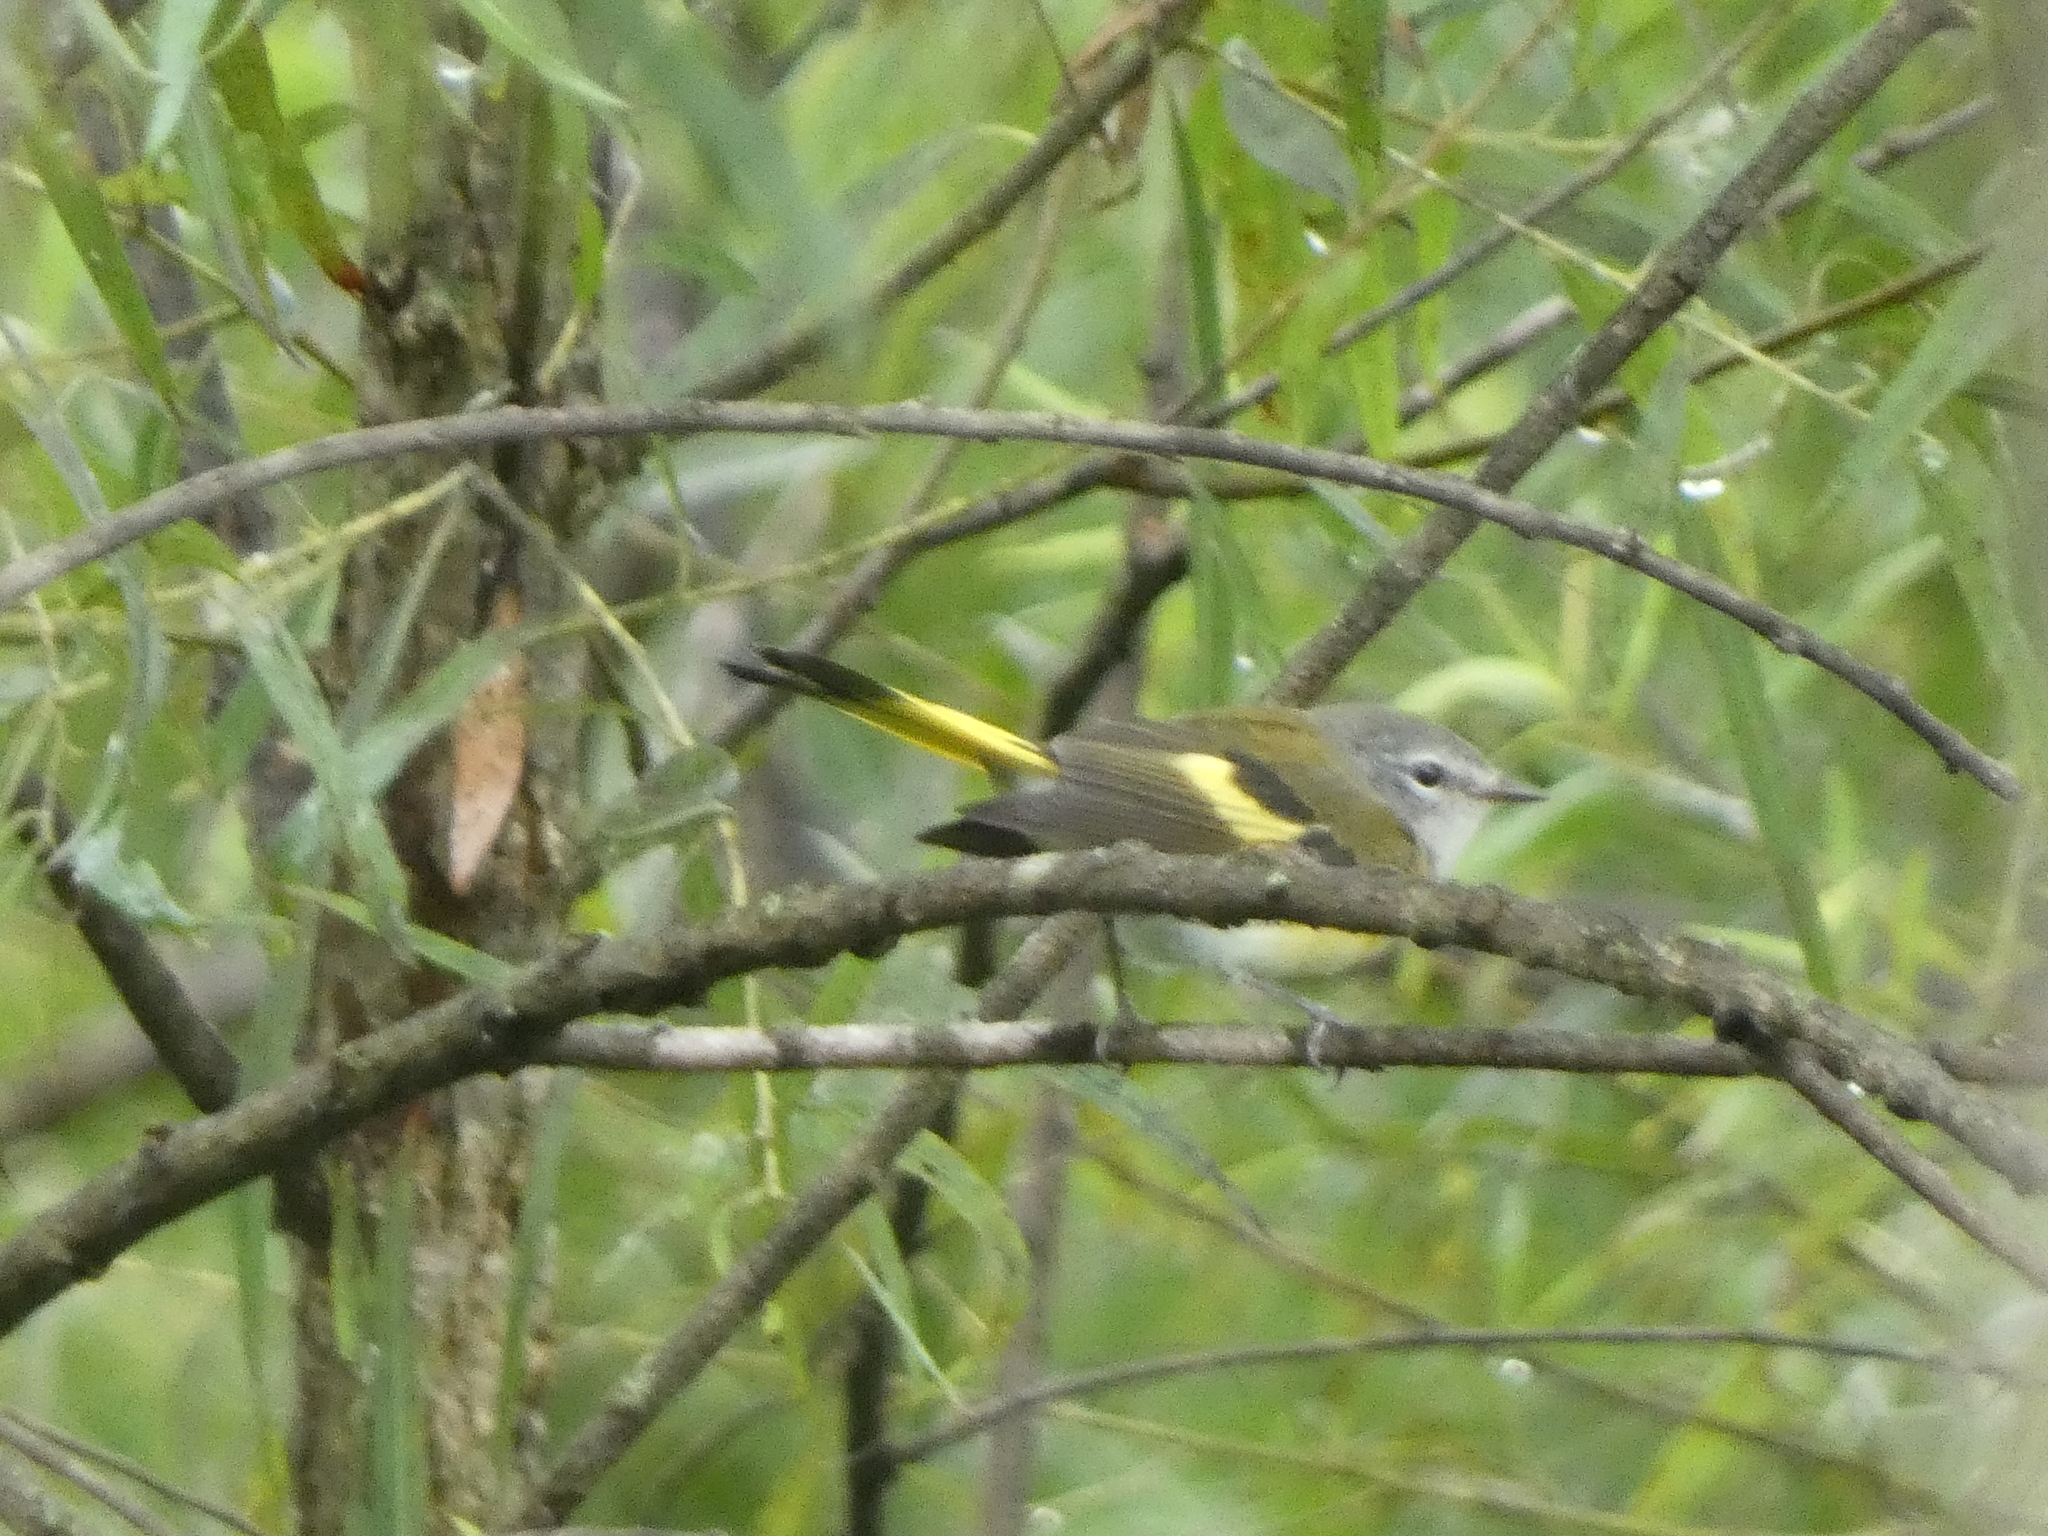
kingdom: Animalia
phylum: Chordata
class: Aves
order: Passeriformes
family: Parulidae
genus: Setophaga
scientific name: Setophaga ruticilla
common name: American redstart
